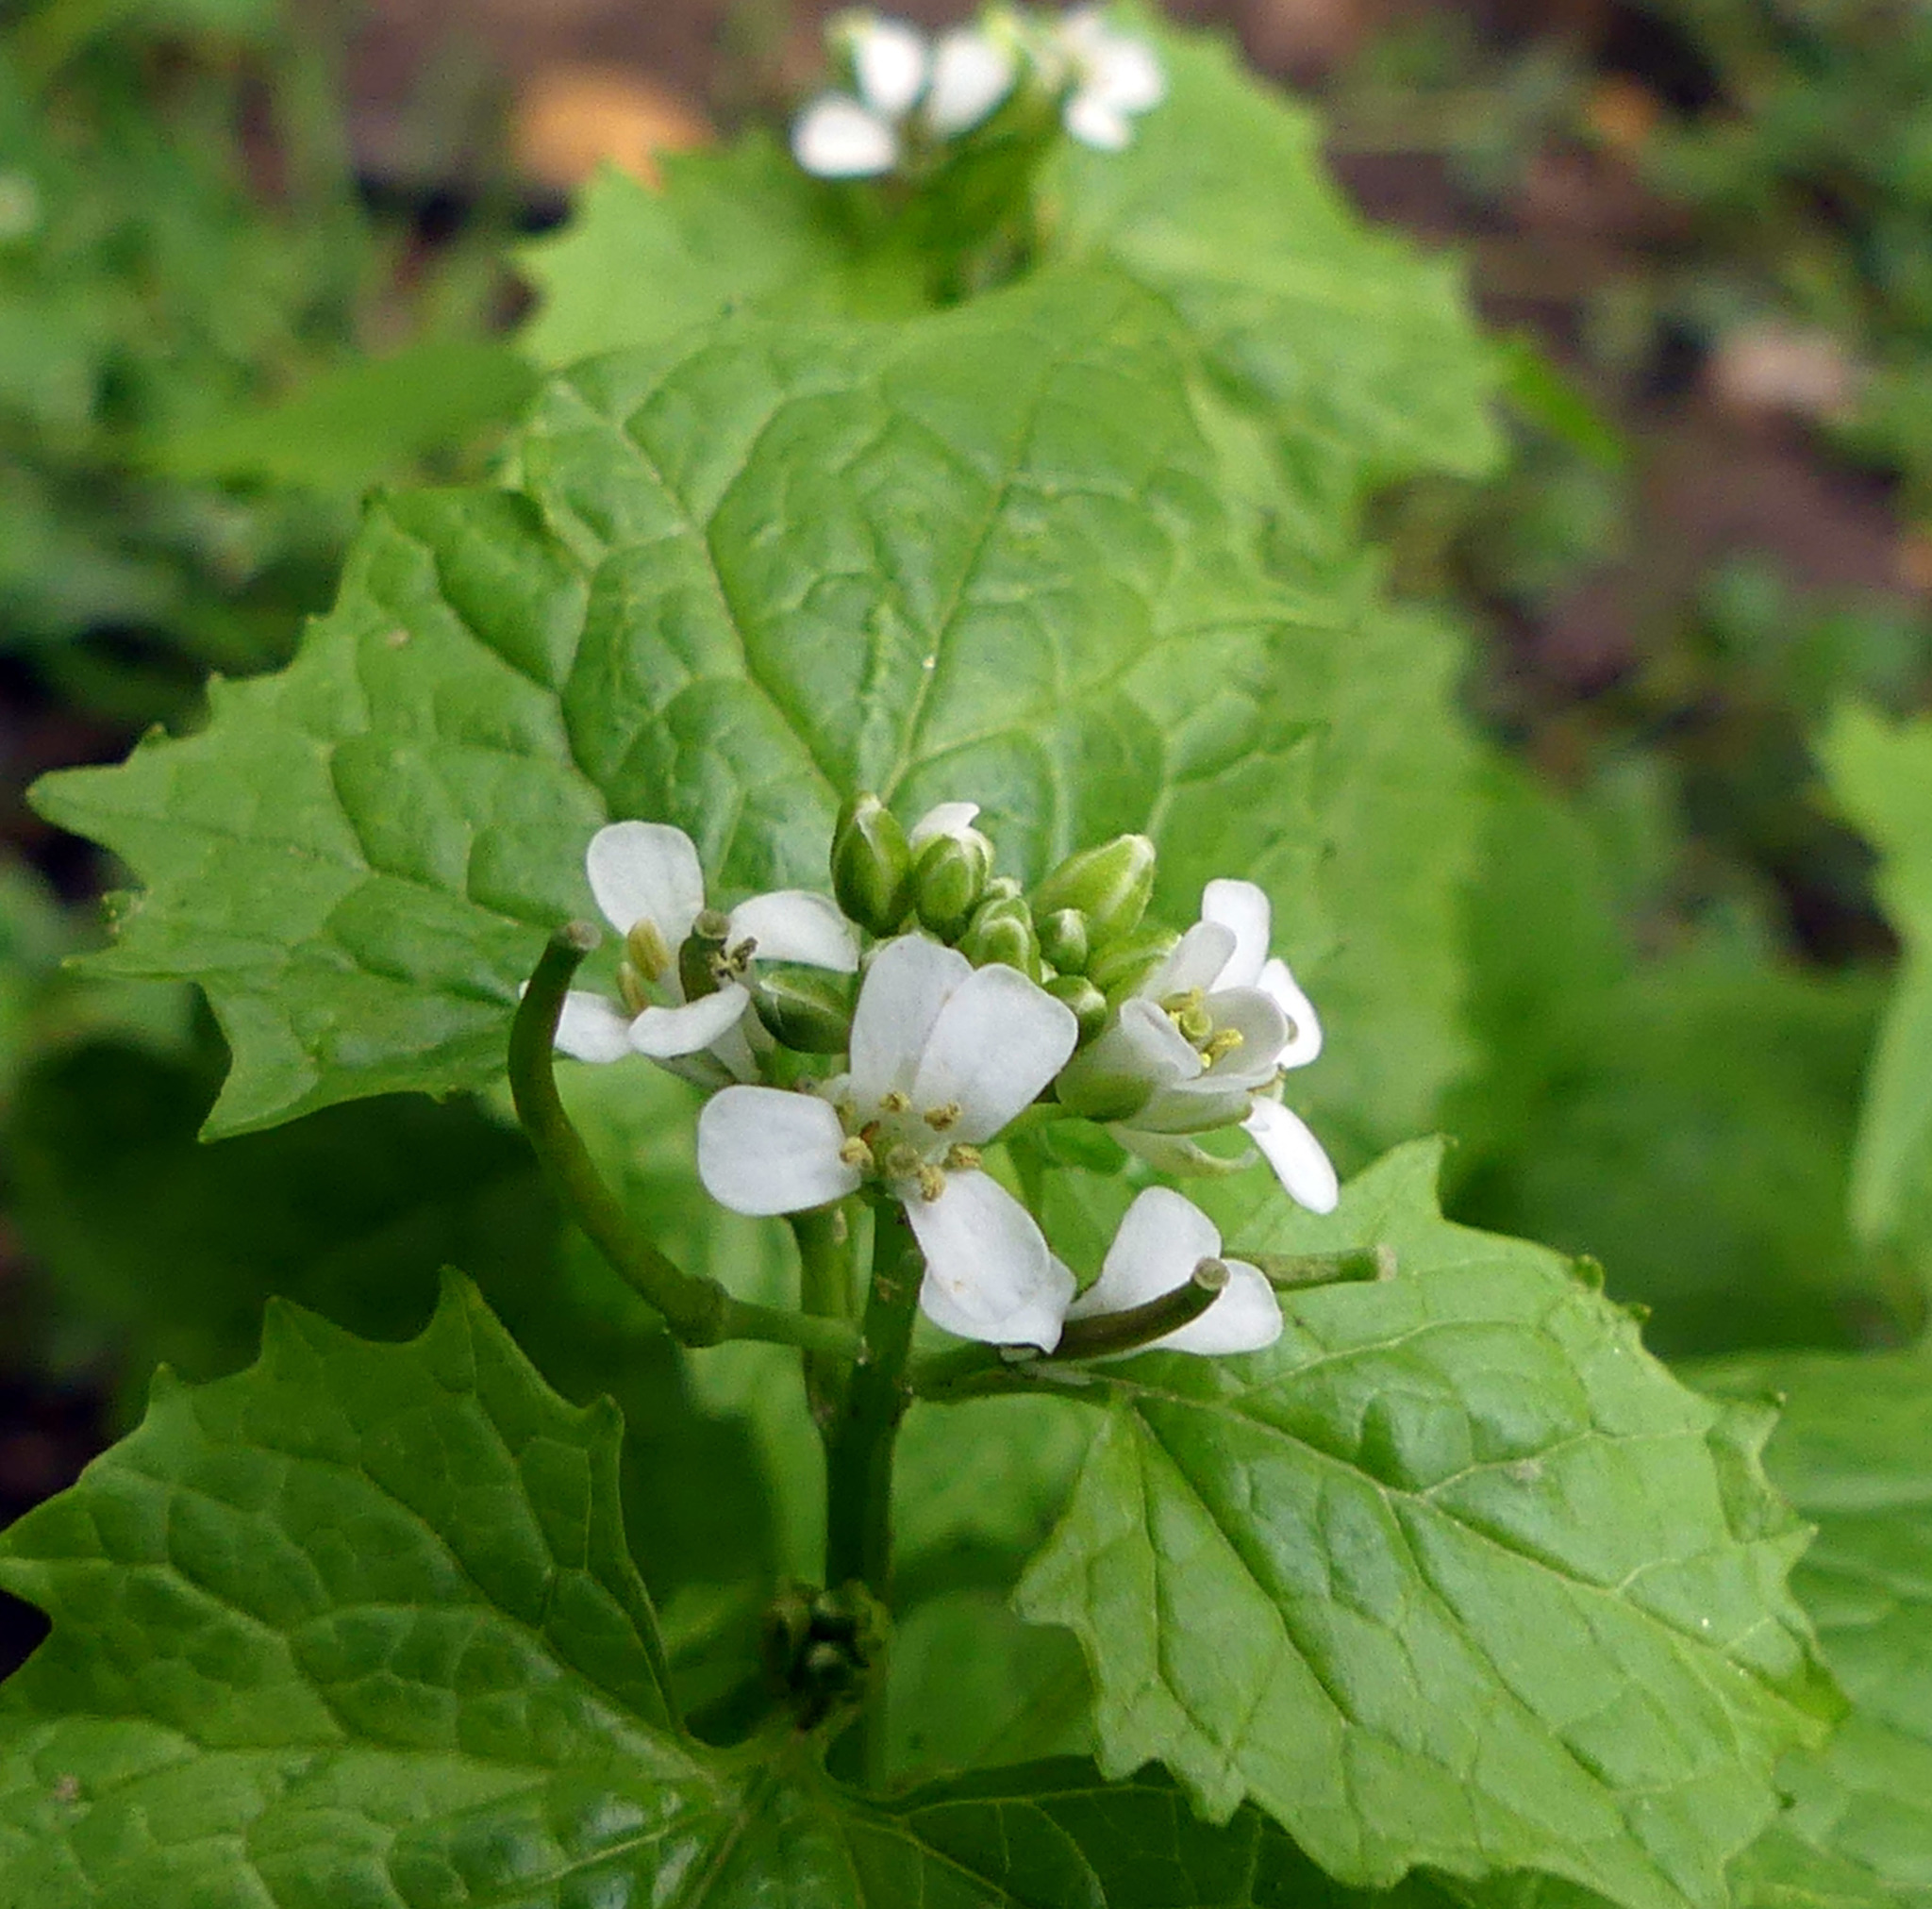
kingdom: Plantae
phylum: Tracheophyta
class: Magnoliopsida
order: Brassicales
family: Brassicaceae
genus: Alliaria
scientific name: Alliaria petiolata
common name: Garlic mustard
